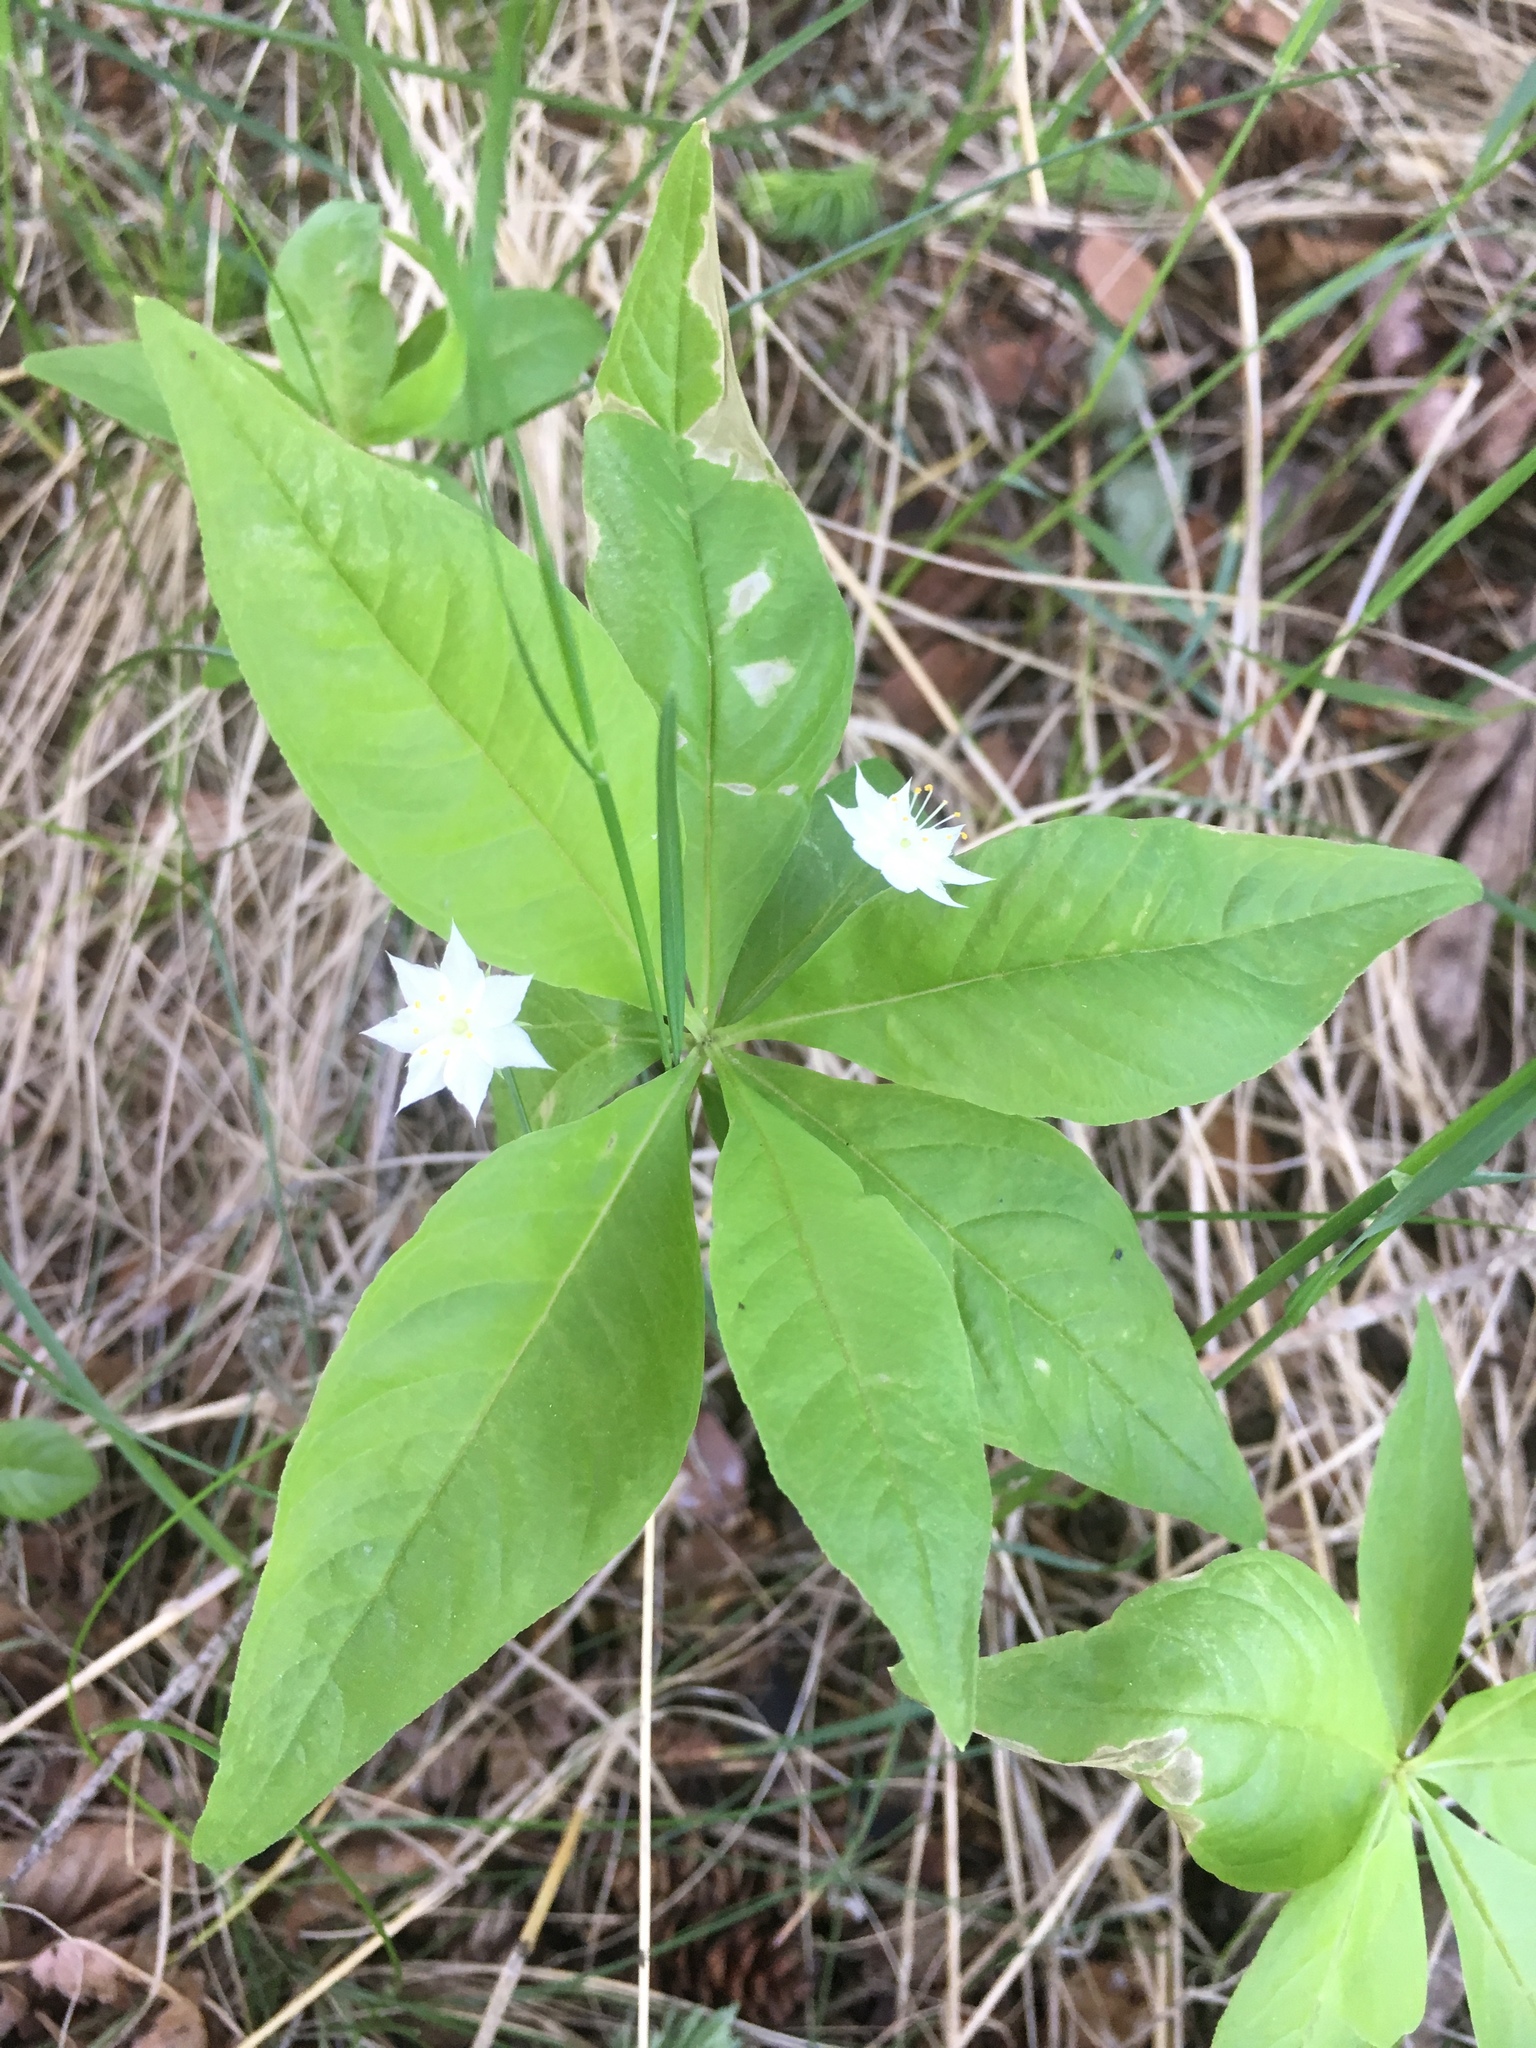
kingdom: Plantae
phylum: Tracheophyta
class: Magnoliopsida
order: Ericales
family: Primulaceae
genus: Lysimachia
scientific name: Lysimachia borealis
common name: American starflower
